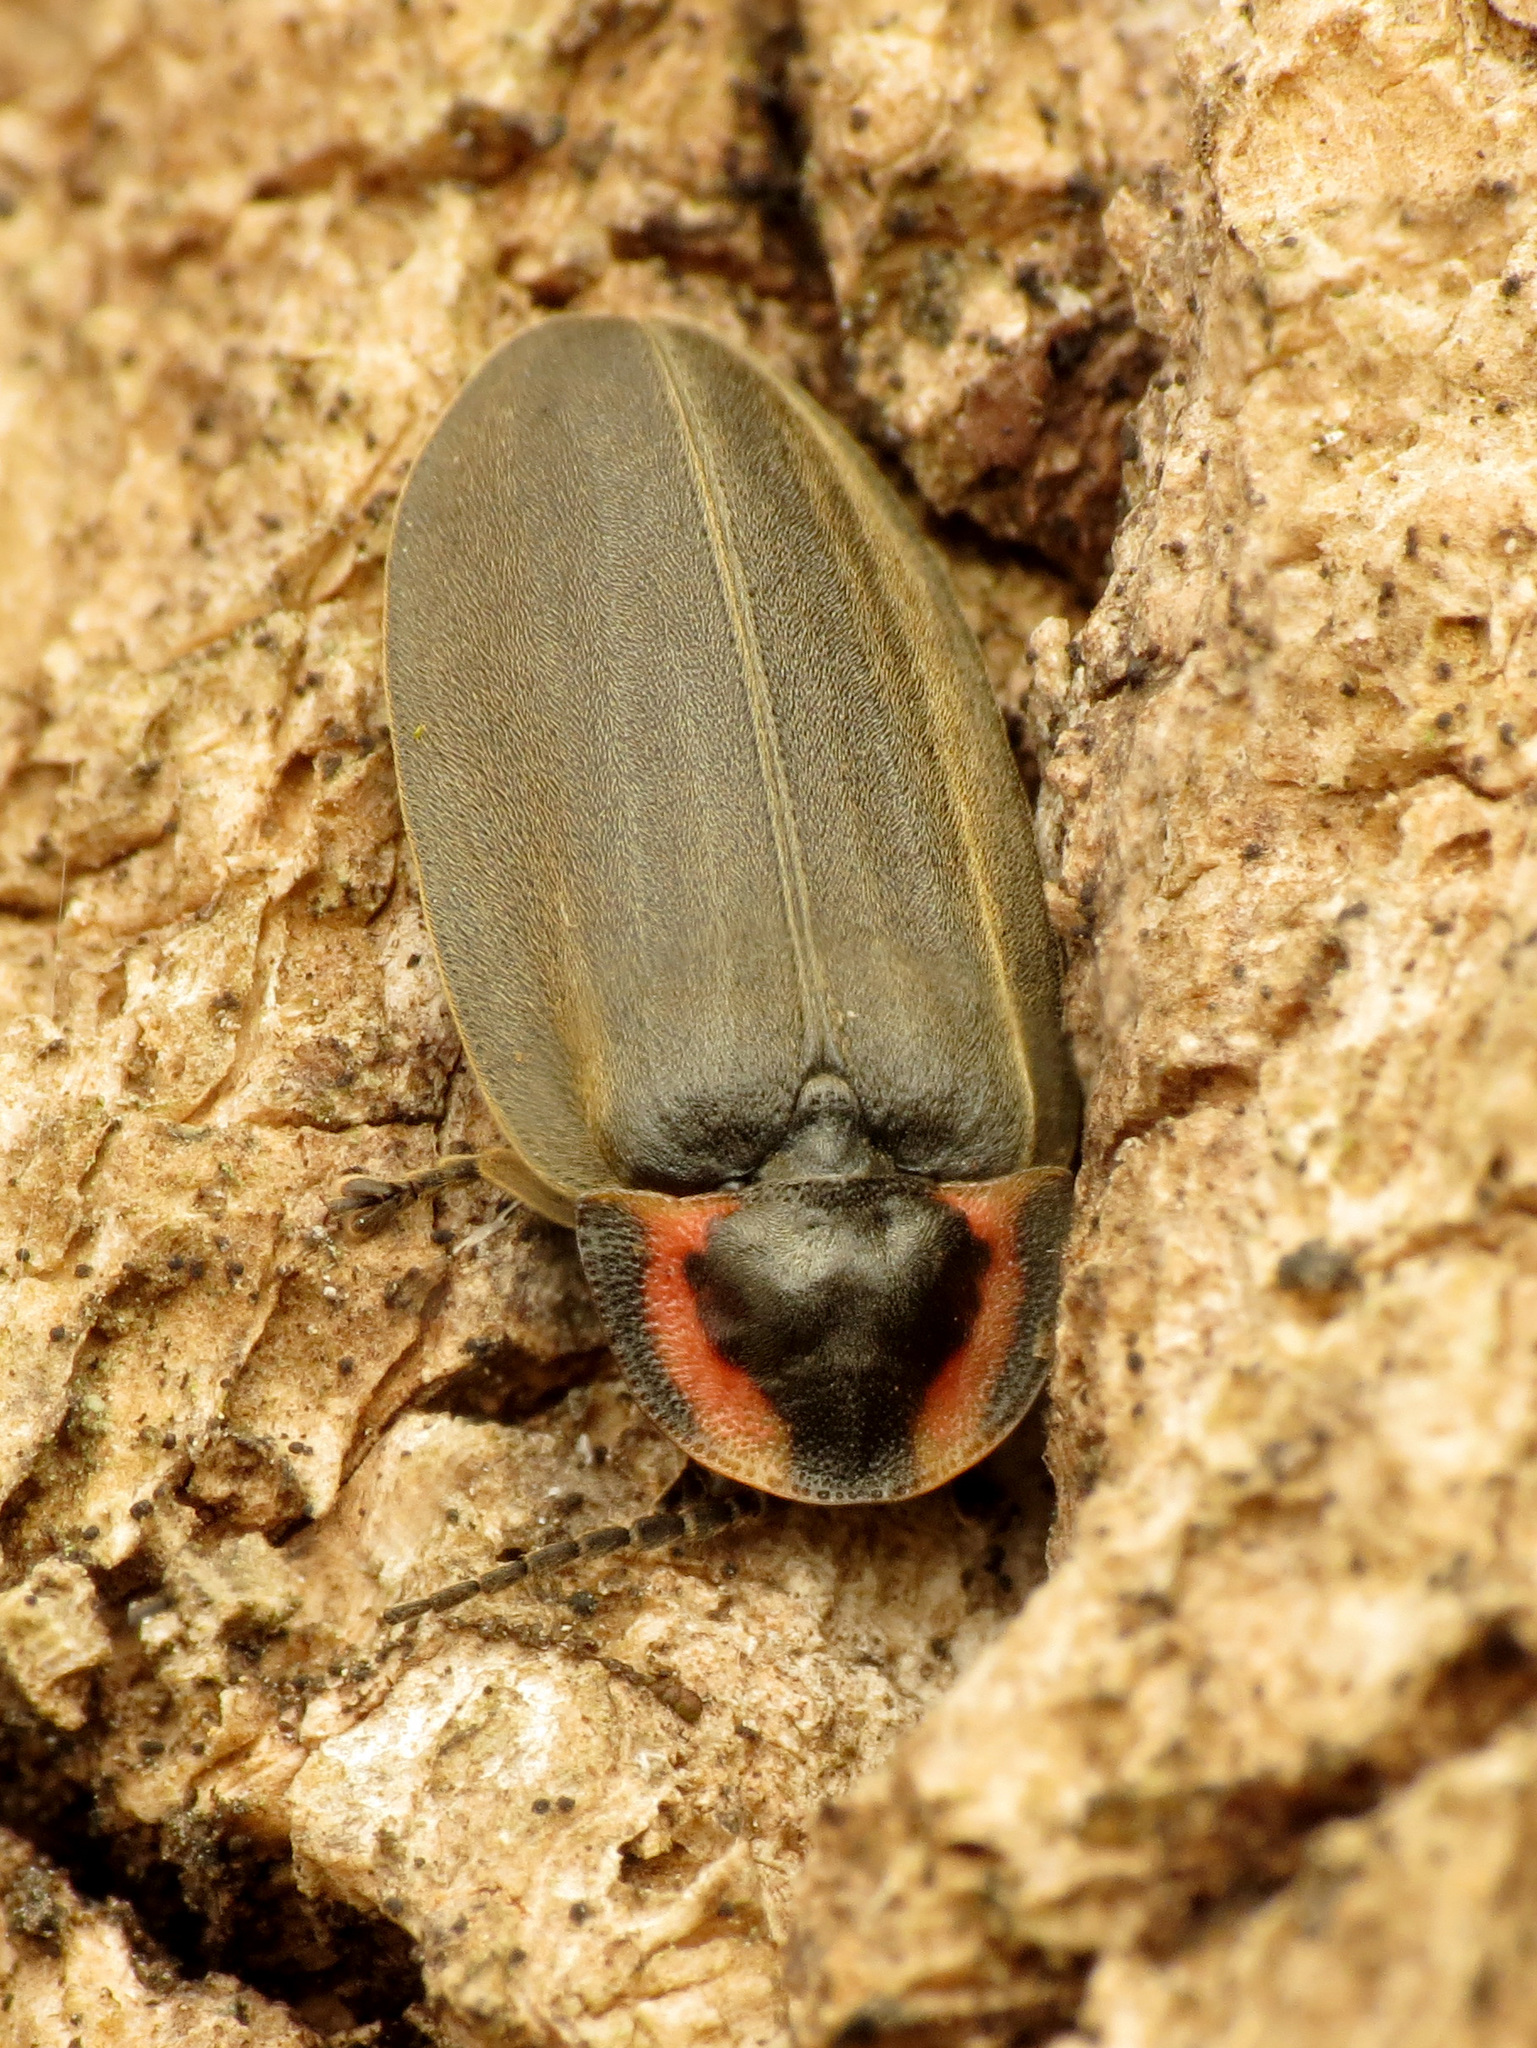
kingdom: Animalia
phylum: Arthropoda
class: Insecta
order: Coleoptera
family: Lampyridae
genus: Photinus
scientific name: Photinus corrusca
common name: Winter firefly
